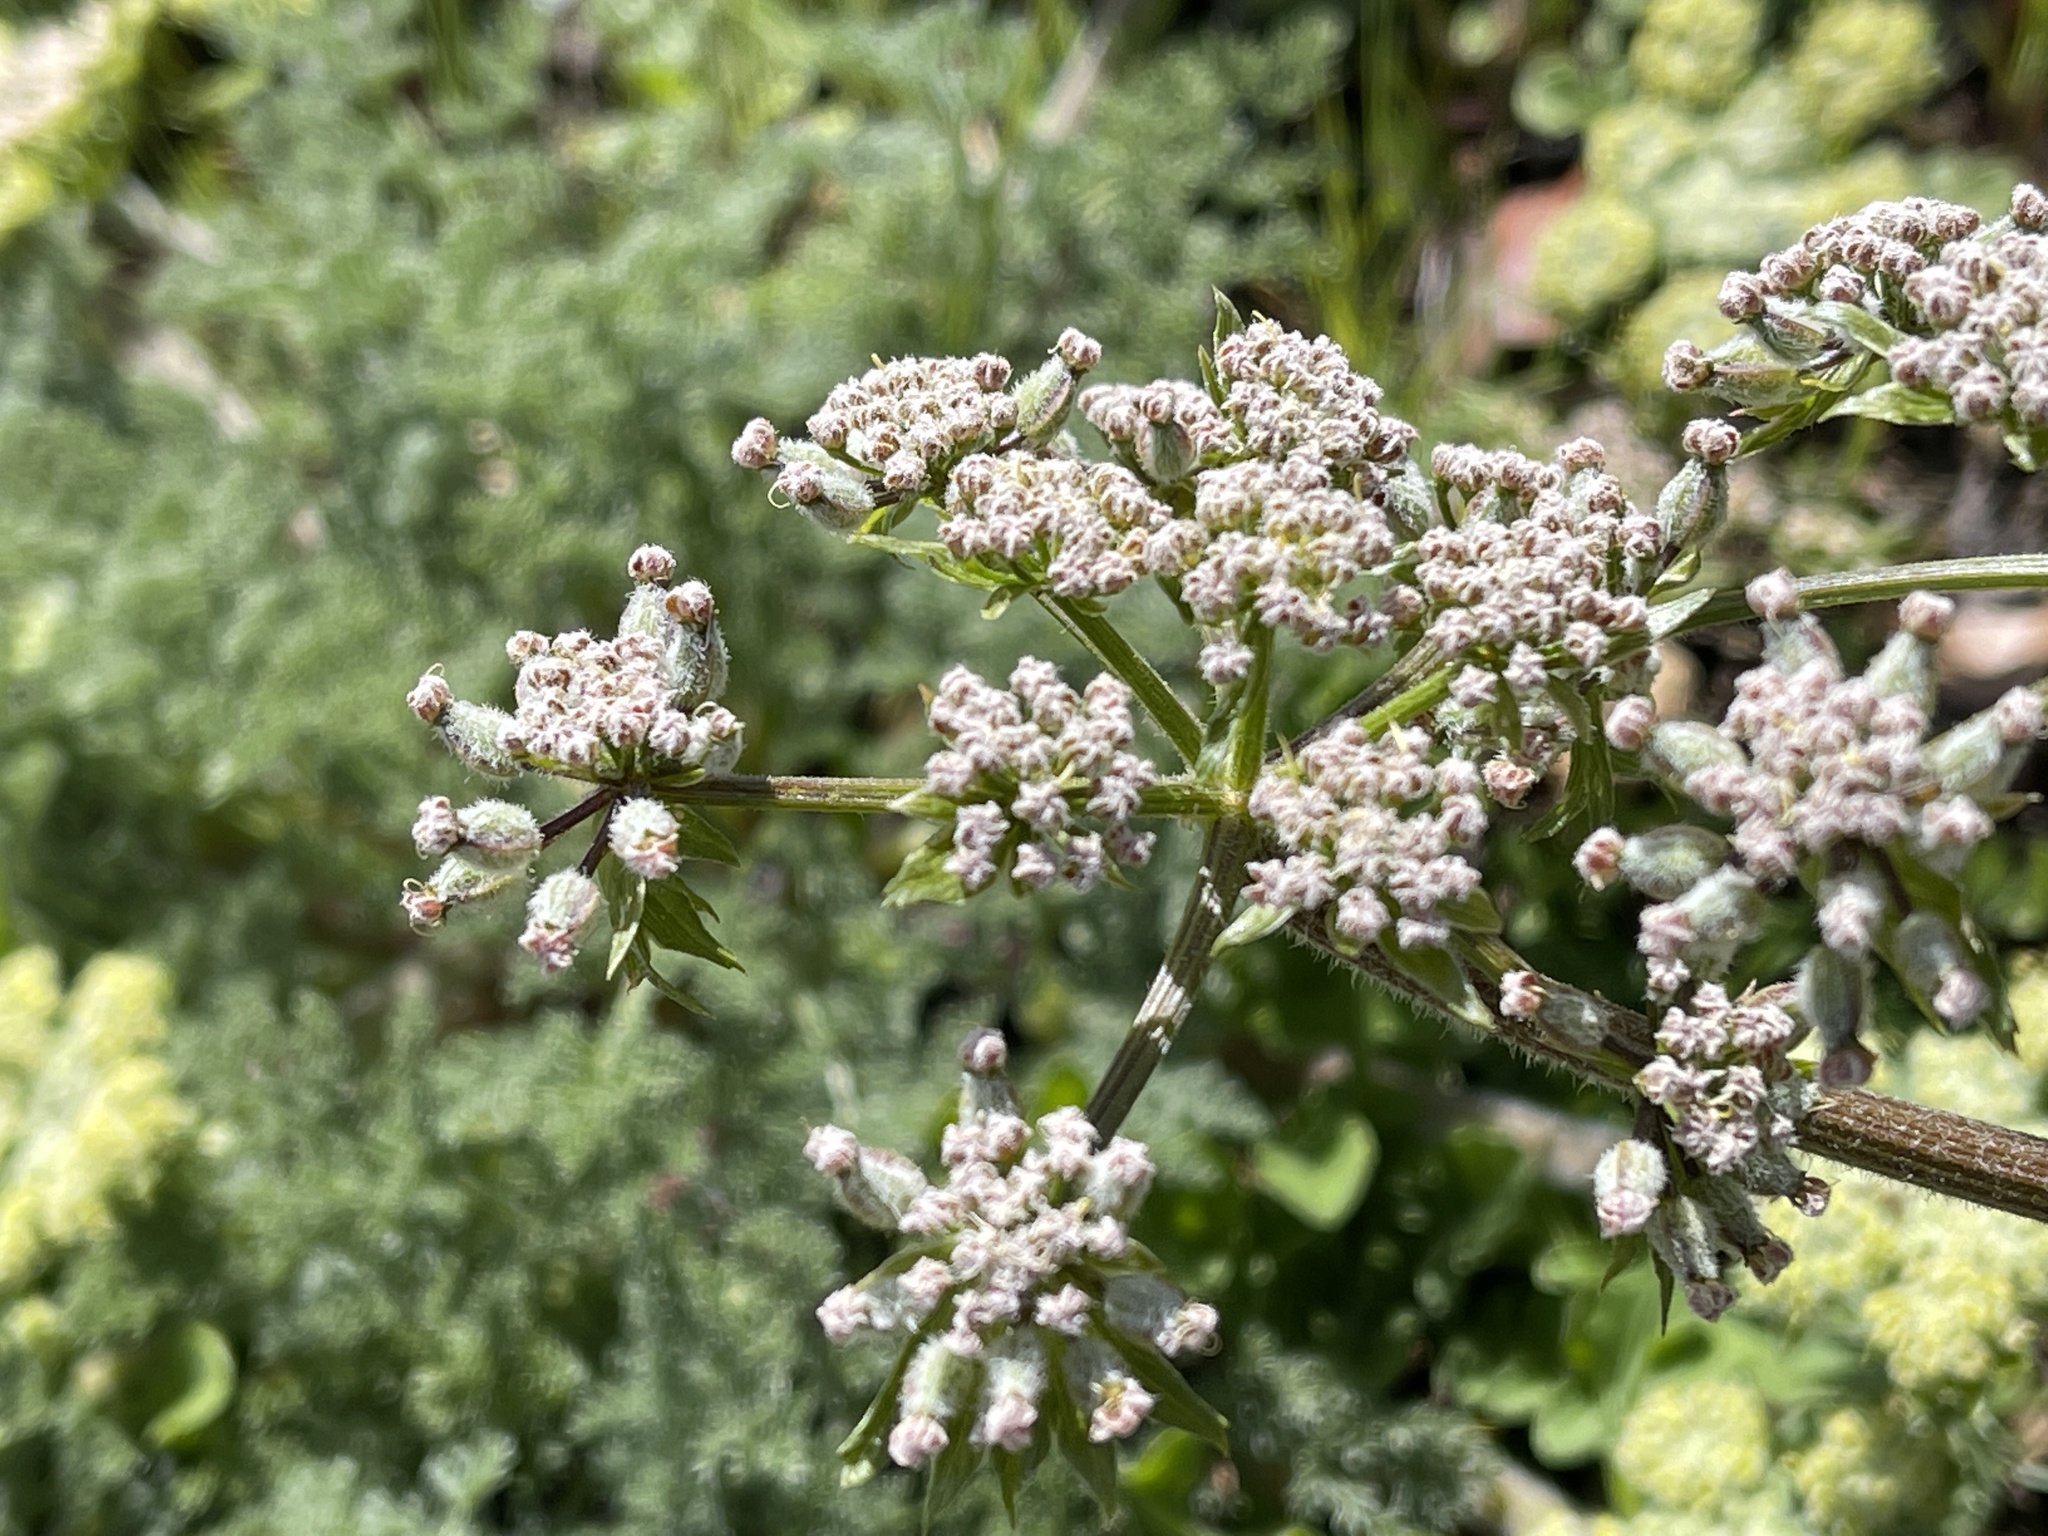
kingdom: Plantae
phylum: Tracheophyta
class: Magnoliopsida
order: Apiales
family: Apiaceae
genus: Lomatium
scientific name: Lomatium dasycarpum
